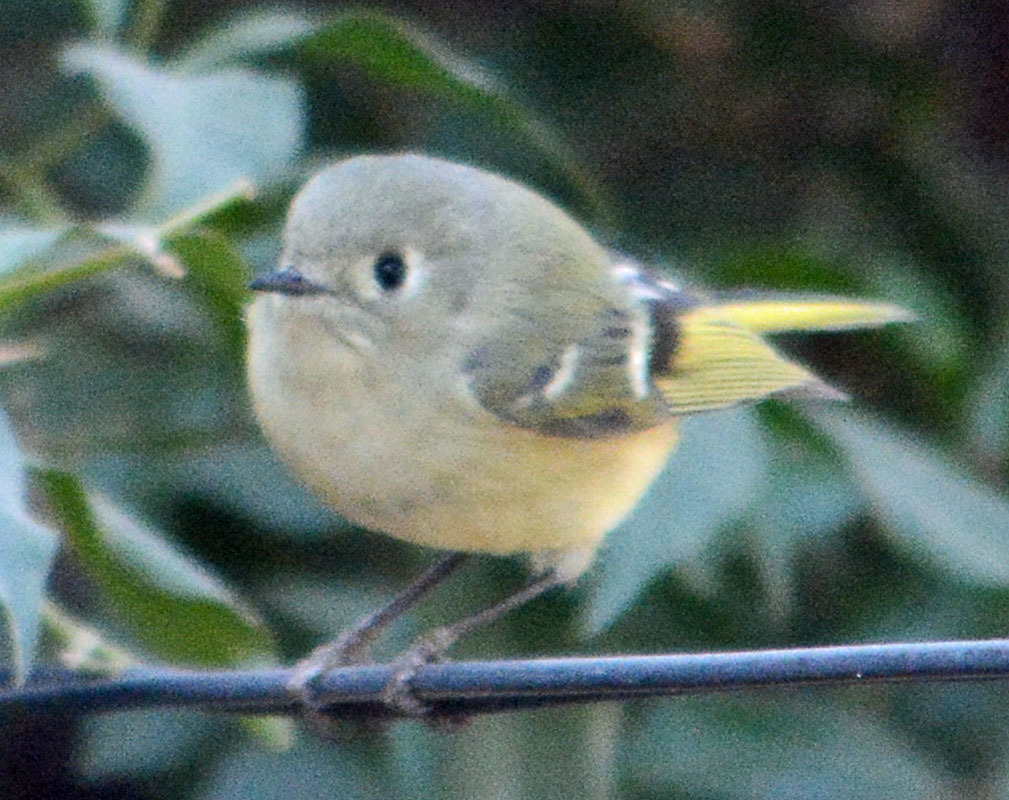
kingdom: Animalia
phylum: Chordata
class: Aves
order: Passeriformes
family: Regulidae
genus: Regulus
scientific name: Regulus calendula
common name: Ruby-crowned kinglet
